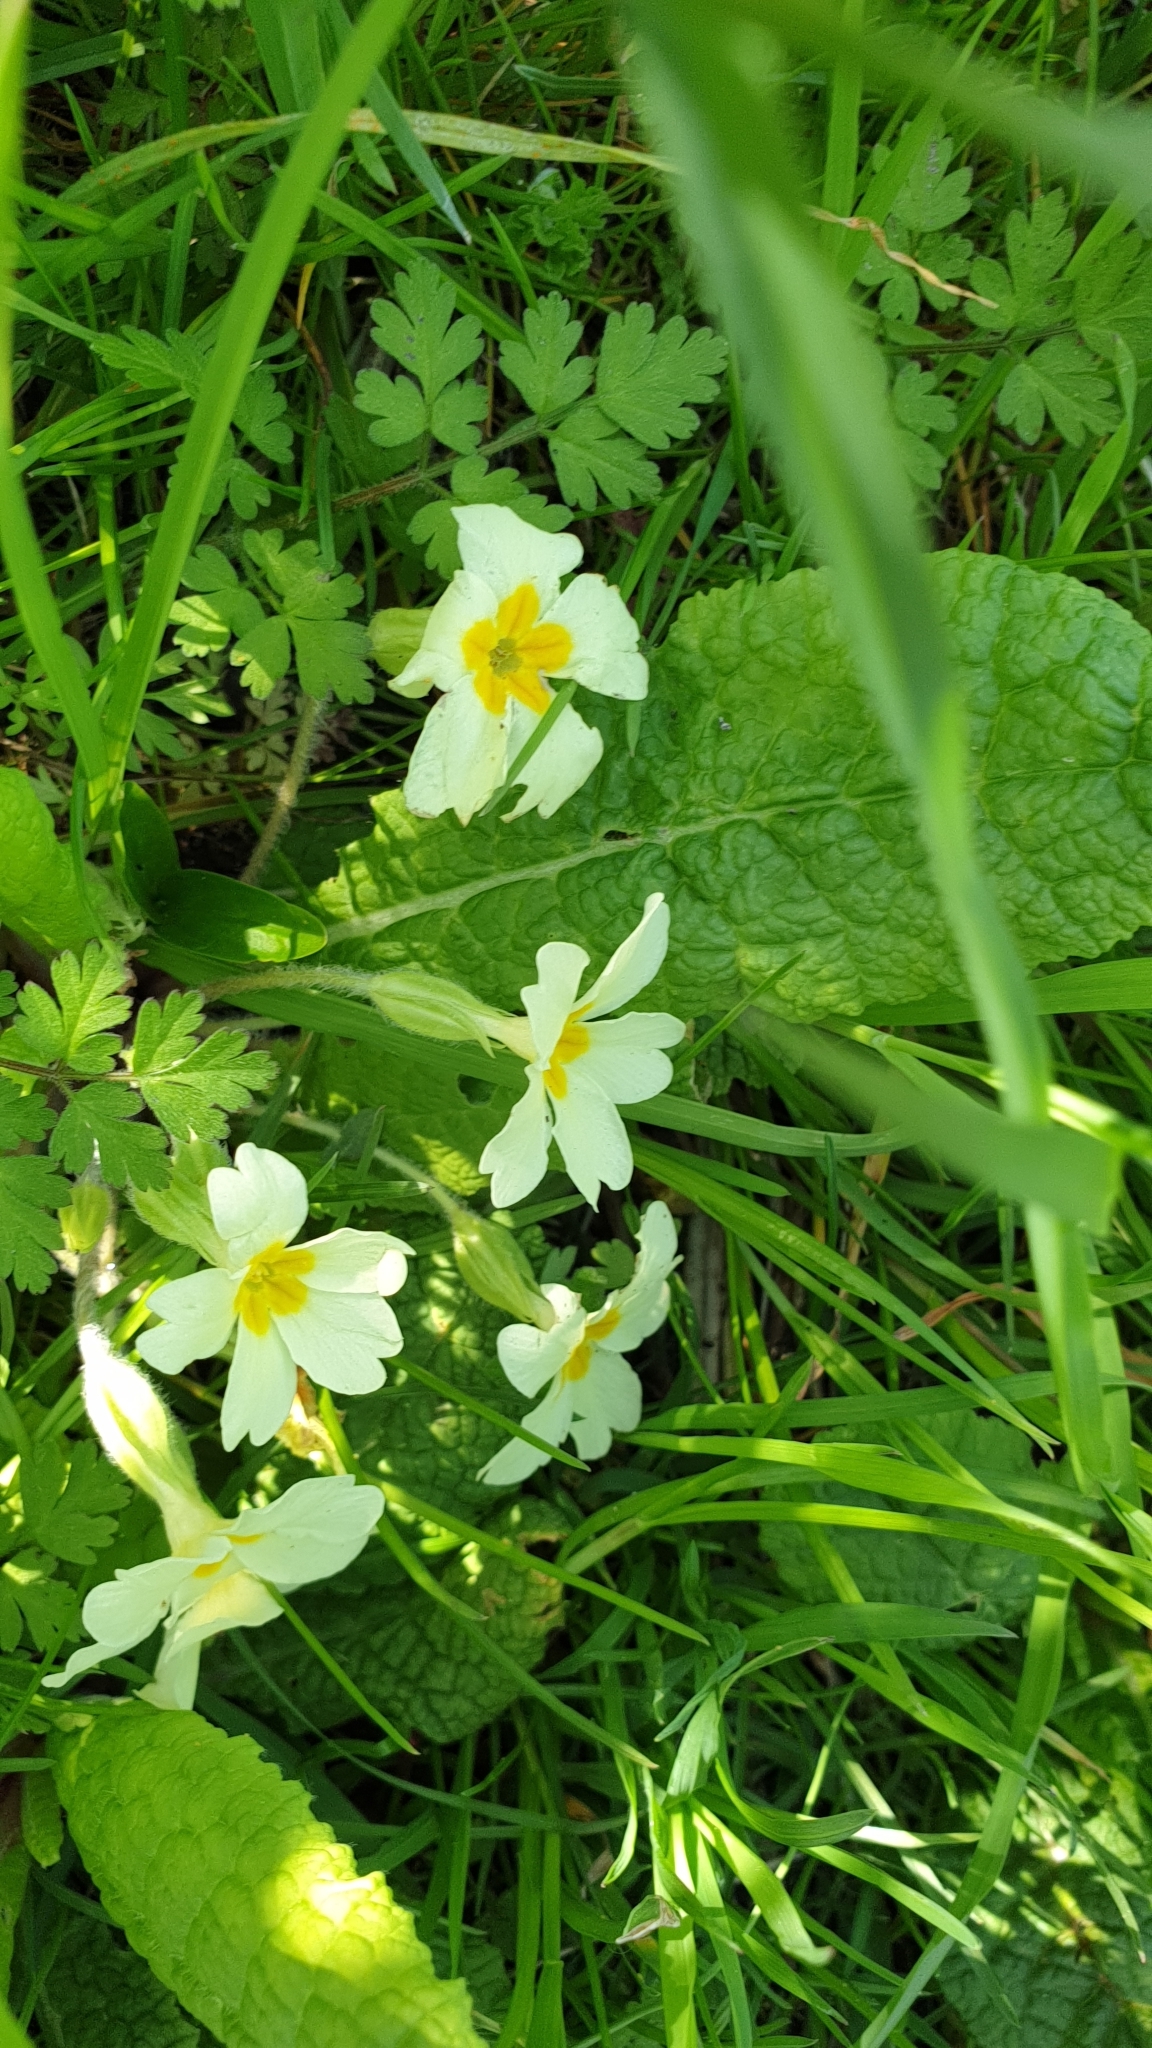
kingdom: Plantae
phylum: Tracheophyta
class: Magnoliopsida
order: Ericales
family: Primulaceae
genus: Primula
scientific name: Primula vulgaris
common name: Primrose
